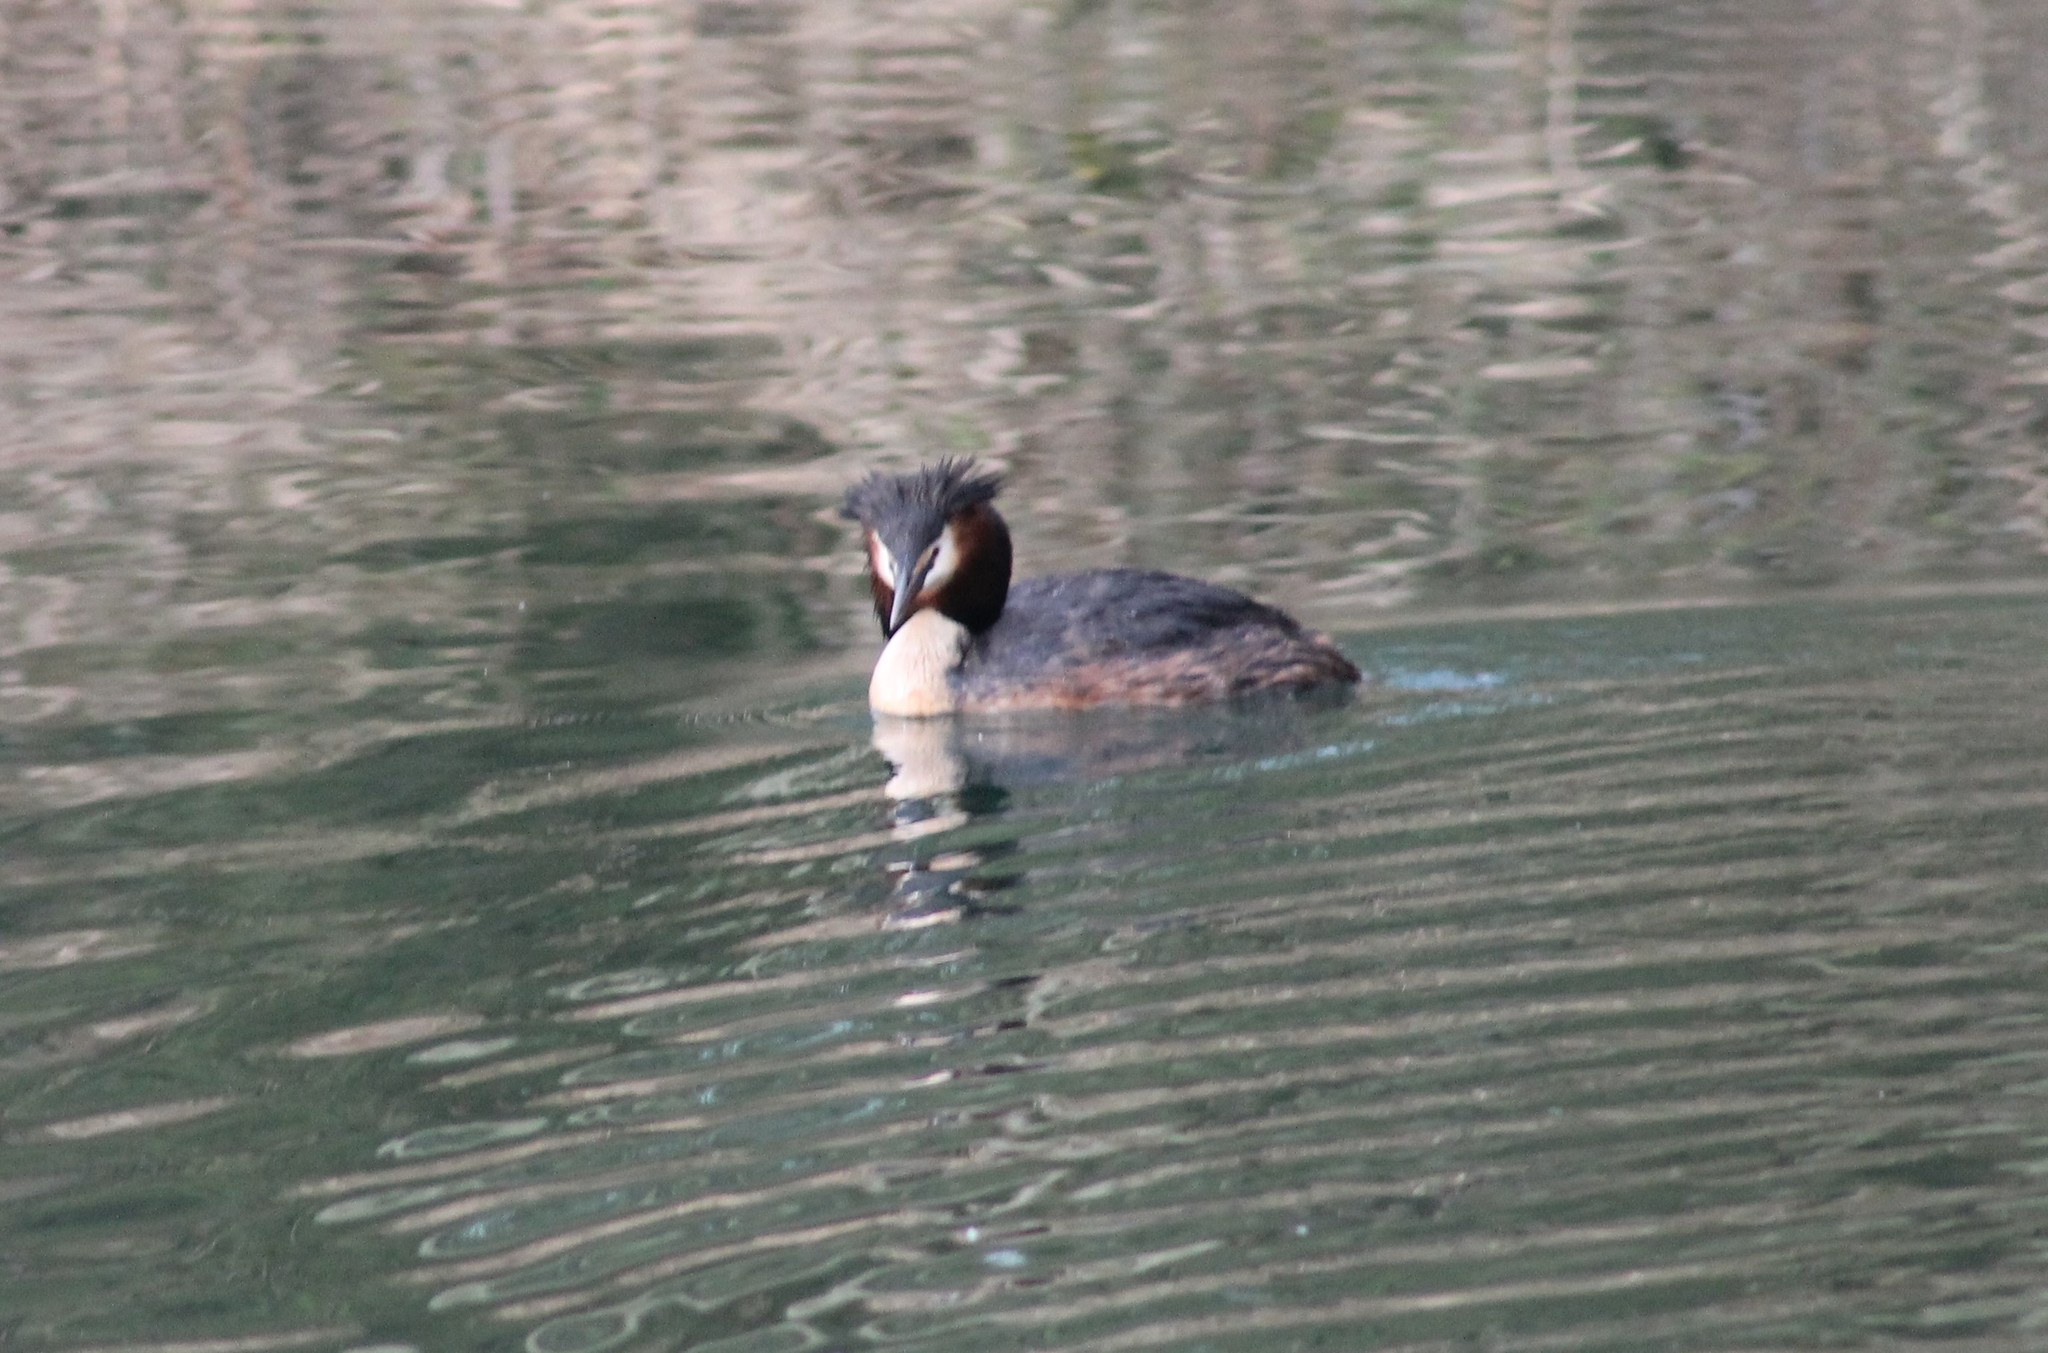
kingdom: Animalia
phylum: Chordata
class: Aves
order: Podicipediformes
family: Podicipedidae
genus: Podiceps
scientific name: Podiceps cristatus
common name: Great crested grebe
